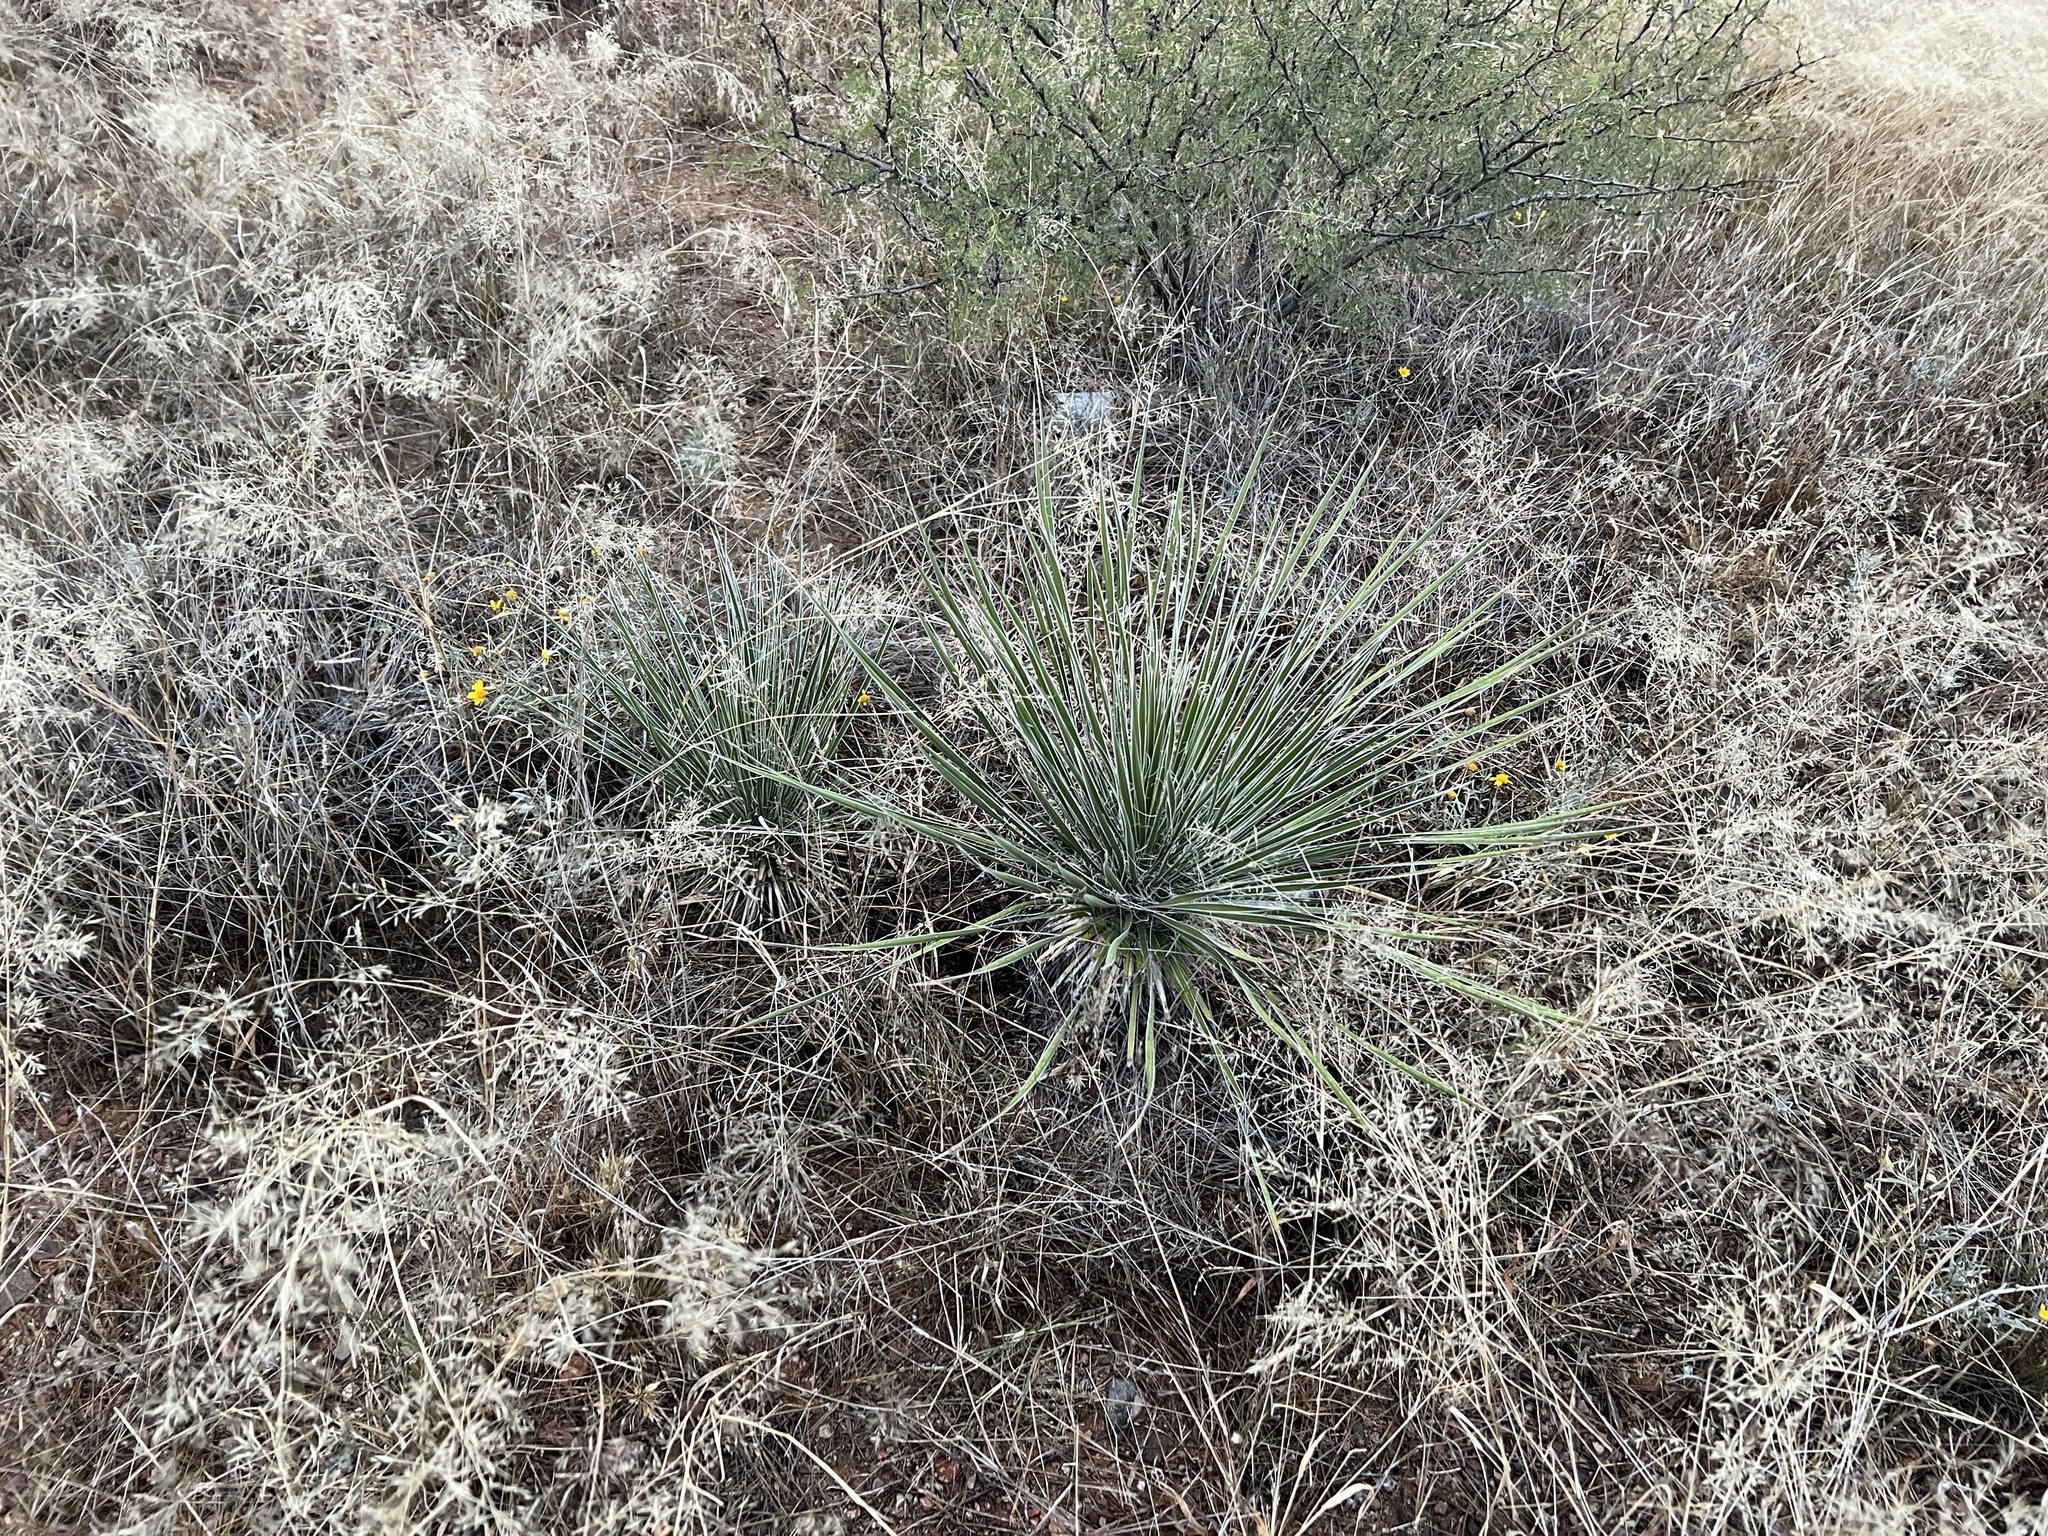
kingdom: Plantae
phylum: Tracheophyta
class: Liliopsida
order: Asparagales
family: Asparagaceae
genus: Yucca
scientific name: Yucca elata
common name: Palmella
